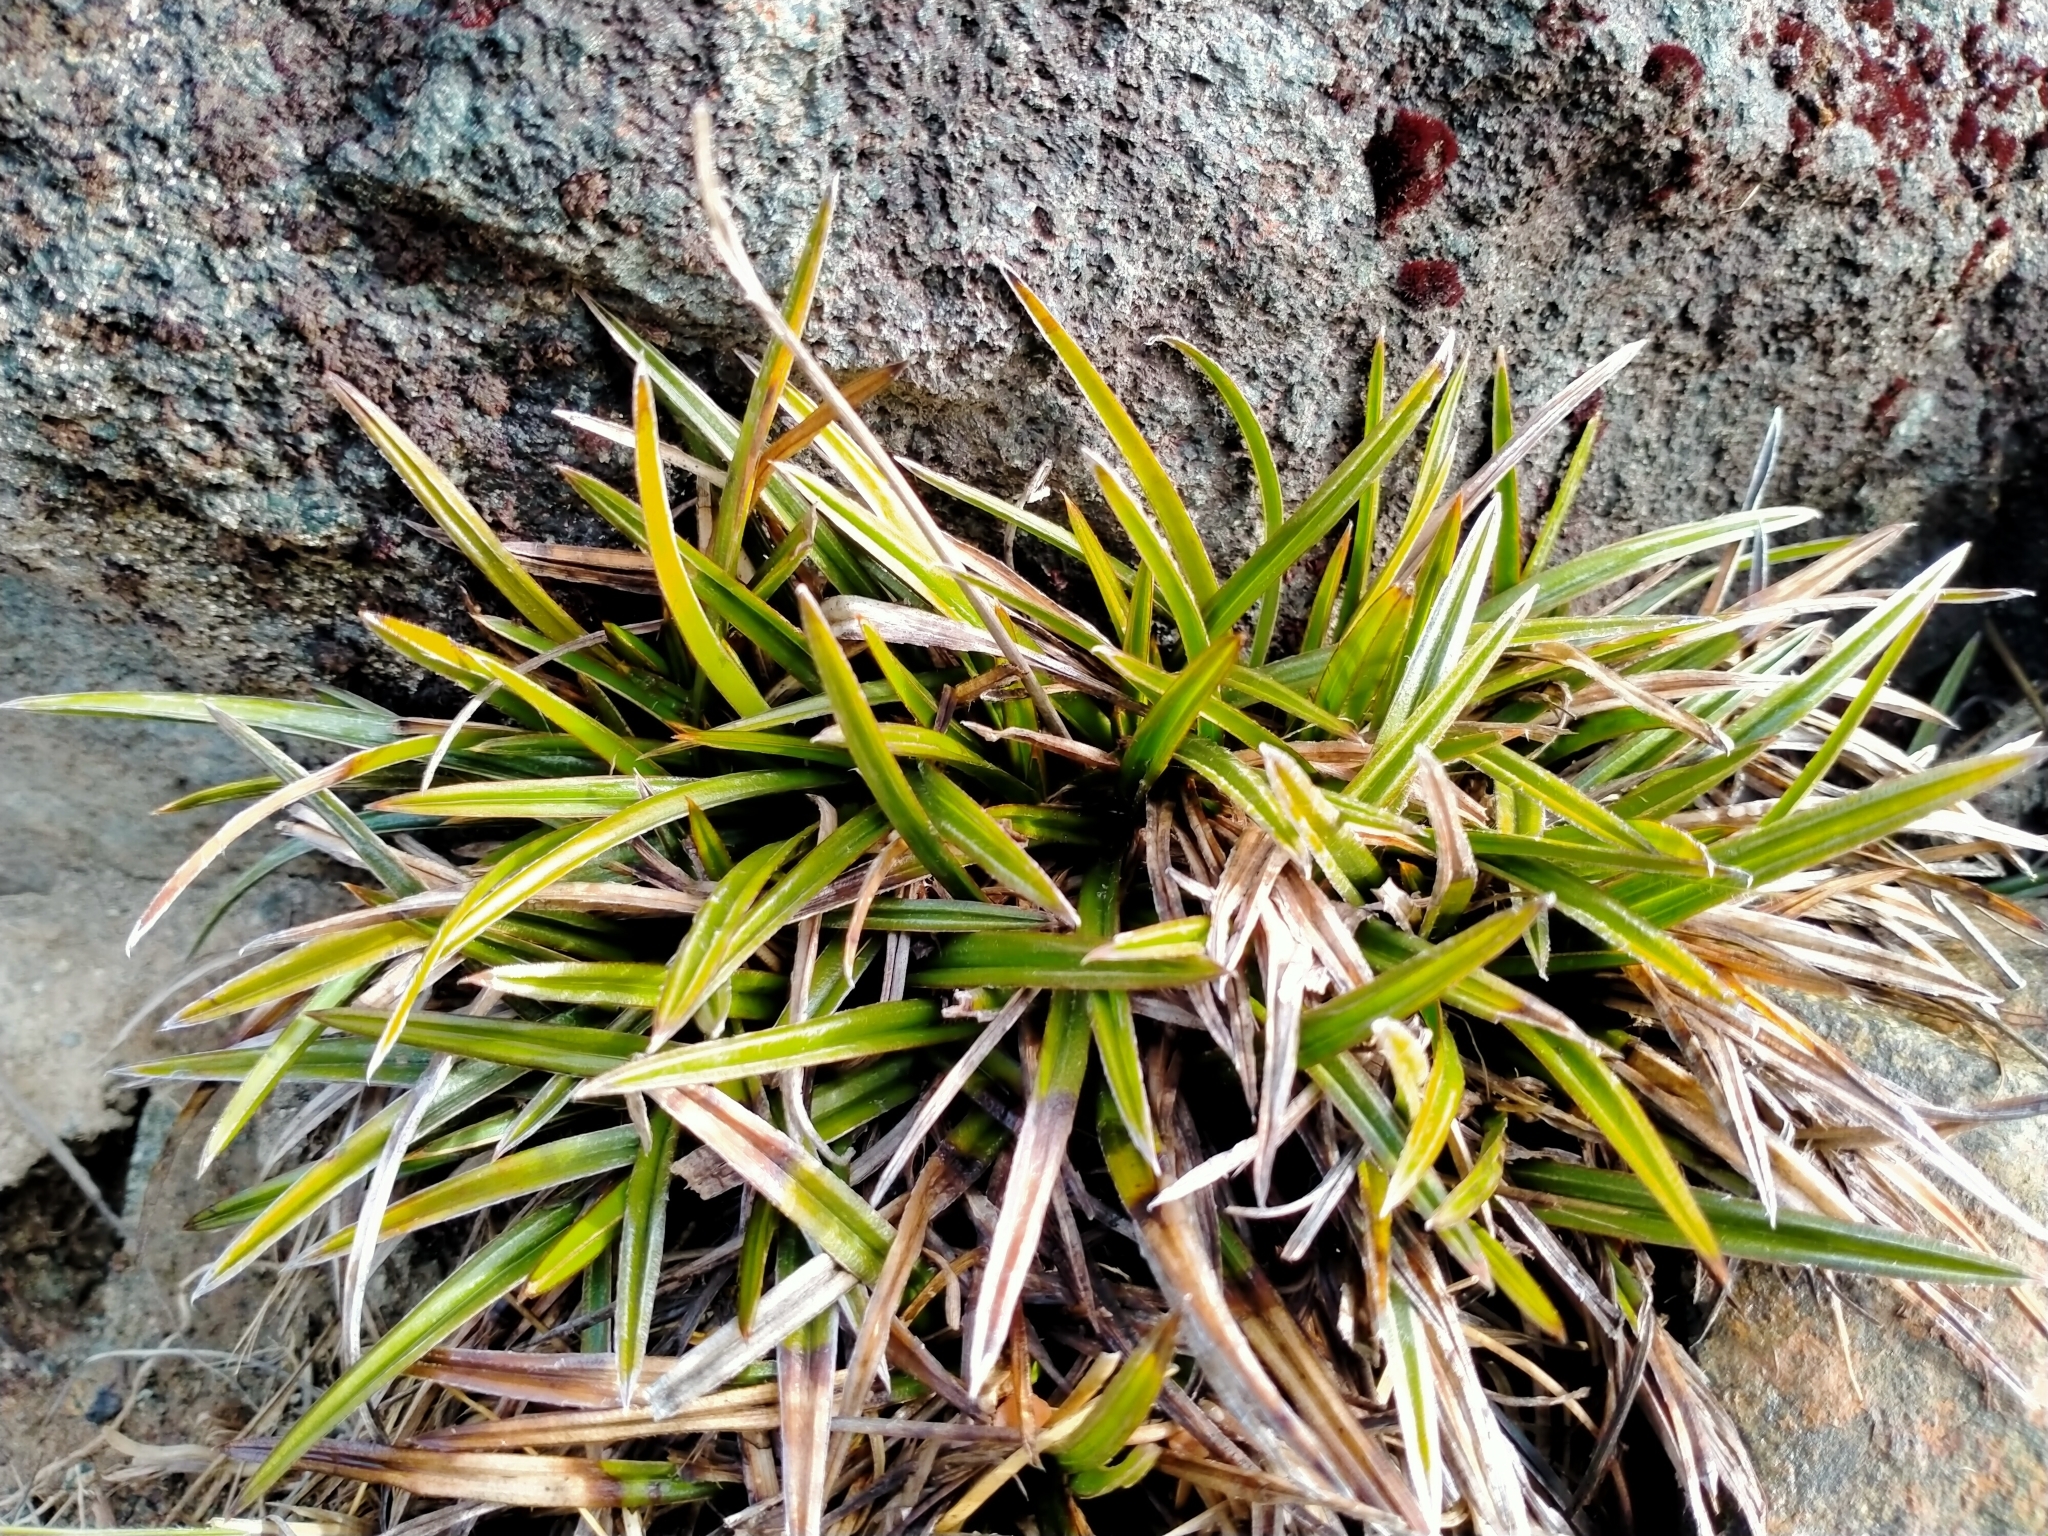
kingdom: Plantae
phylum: Tracheophyta
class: Liliopsida
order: Asparagales
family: Asteliaceae
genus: Astelia
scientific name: Astelia linearis
